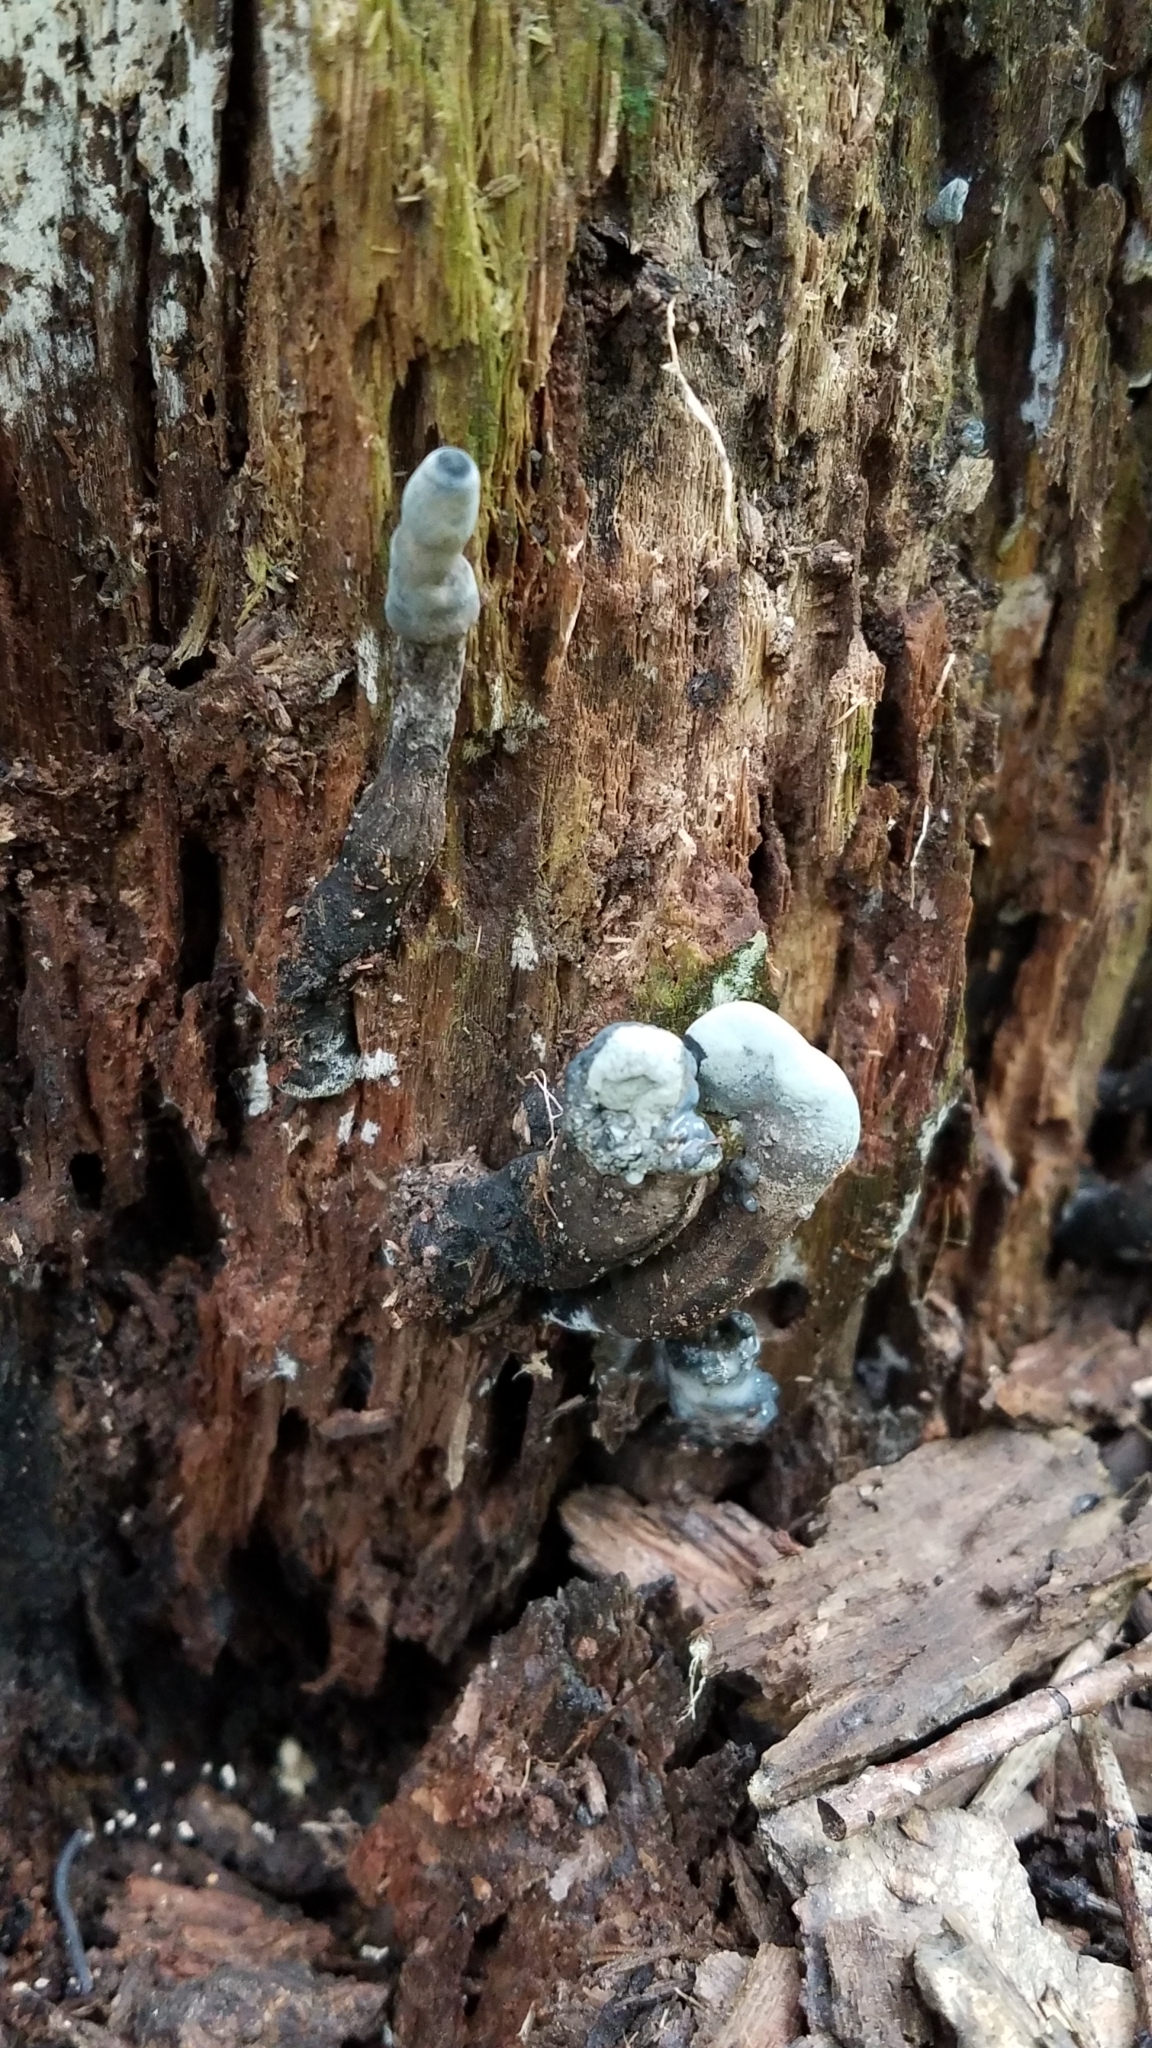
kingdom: Fungi
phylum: Ascomycota
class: Sordariomycetes
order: Xylariales
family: Xylariaceae
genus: Xylaria
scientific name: Xylaria polymorpha
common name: Dead man's fingers
